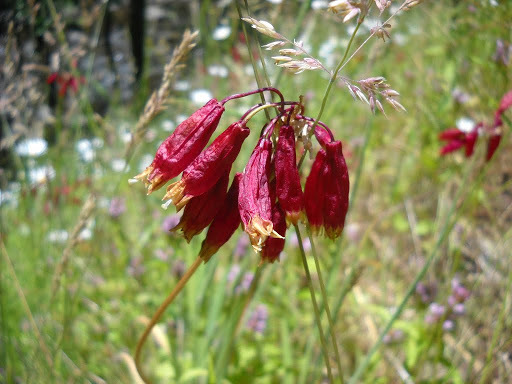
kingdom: Plantae
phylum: Tracheophyta
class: Liliopsida
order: Asparagales
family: Asparagaceae
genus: Dichelostemma
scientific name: Dichelostemma ida-maia
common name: Firecracker-flower
